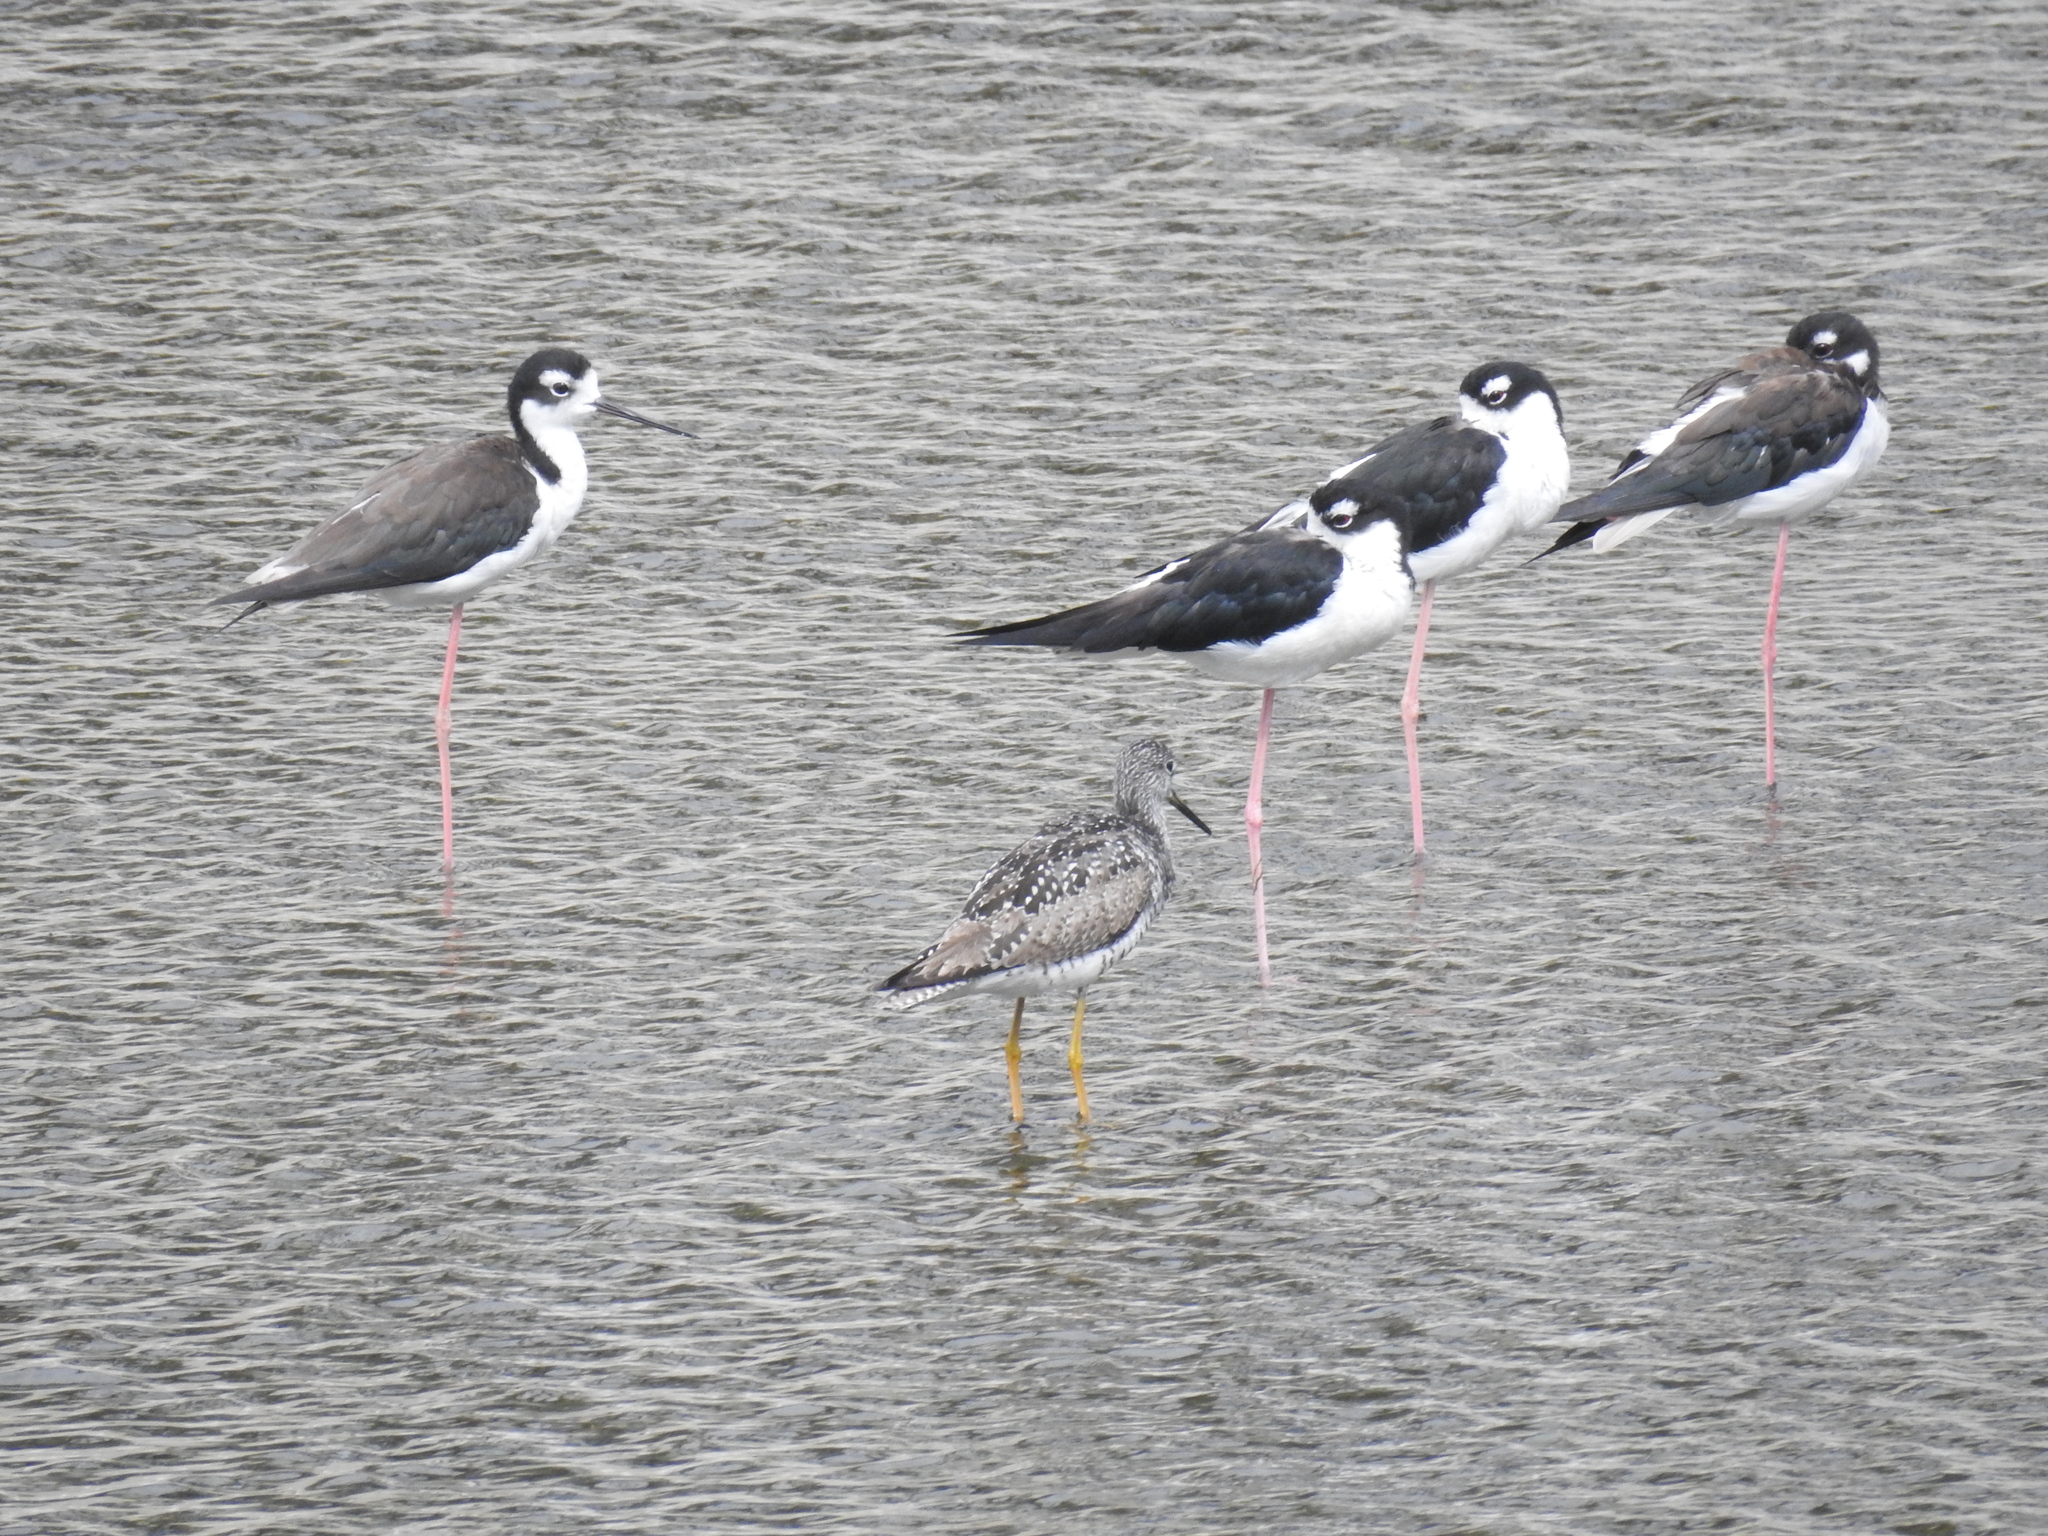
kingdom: Animalia
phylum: Chordata
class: Aves
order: Charadriiformes
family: Scolopacidae
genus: Tringa
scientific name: Tringa melanoleuca
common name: Greater yellowlegs
